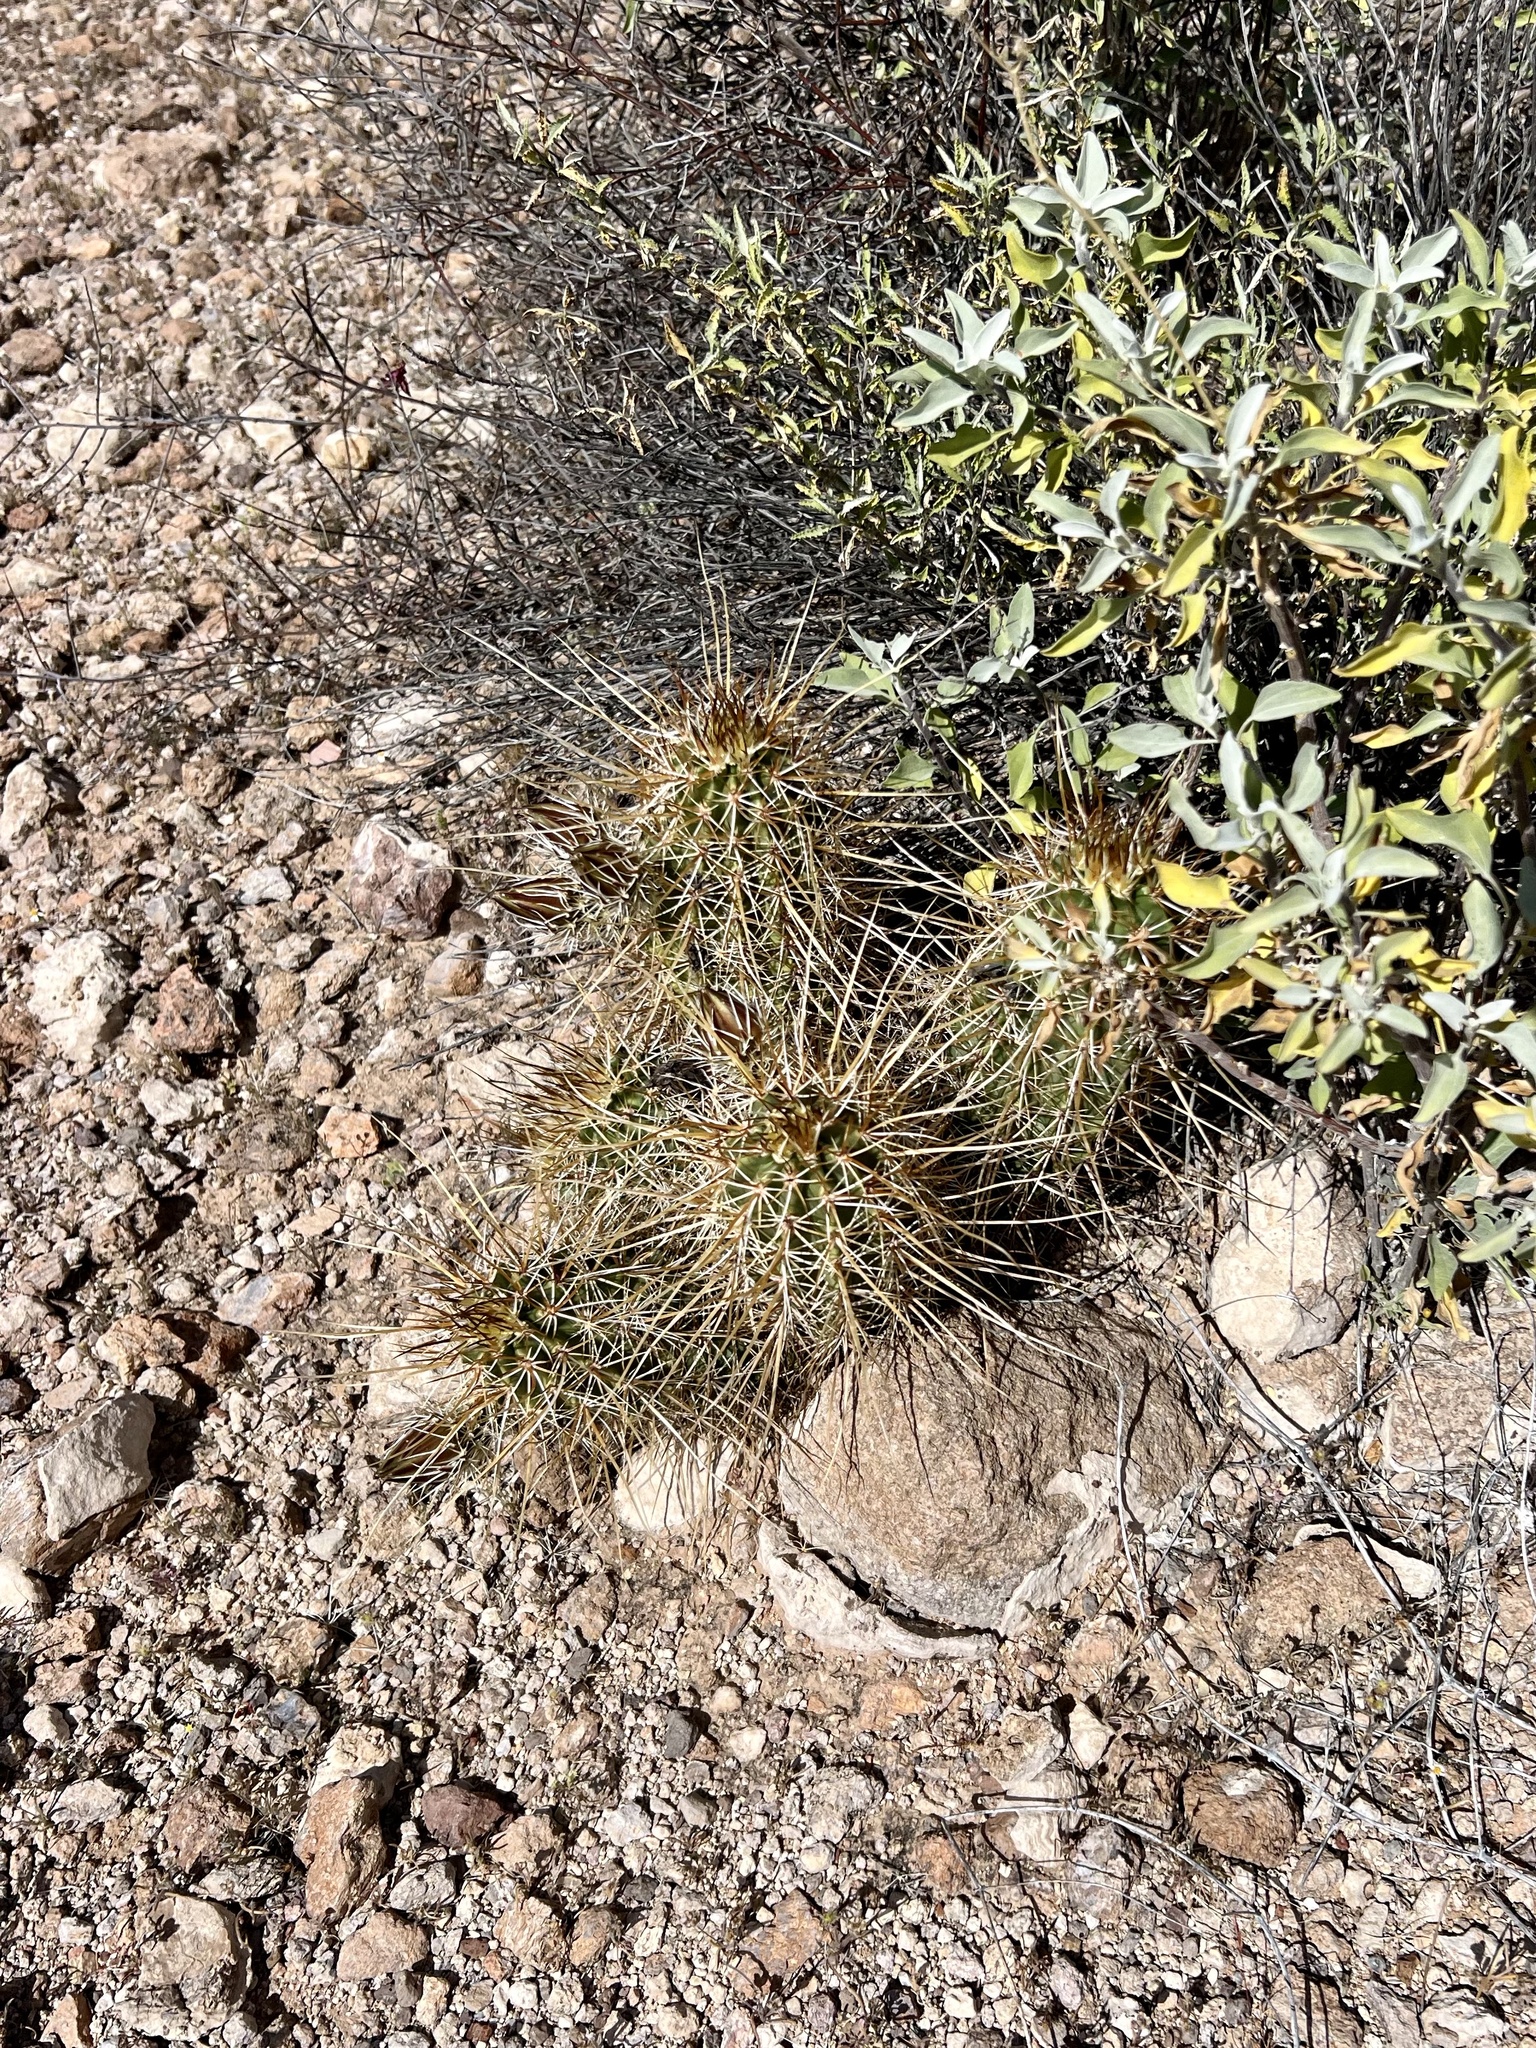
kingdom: Plantae
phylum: Tracheophyta
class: Magnoliopsida
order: Caryophyllales
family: Cactaceae
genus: Echinocereus
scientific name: Echinocereus engelmannii
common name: Engelmann's hedgehog cactus
